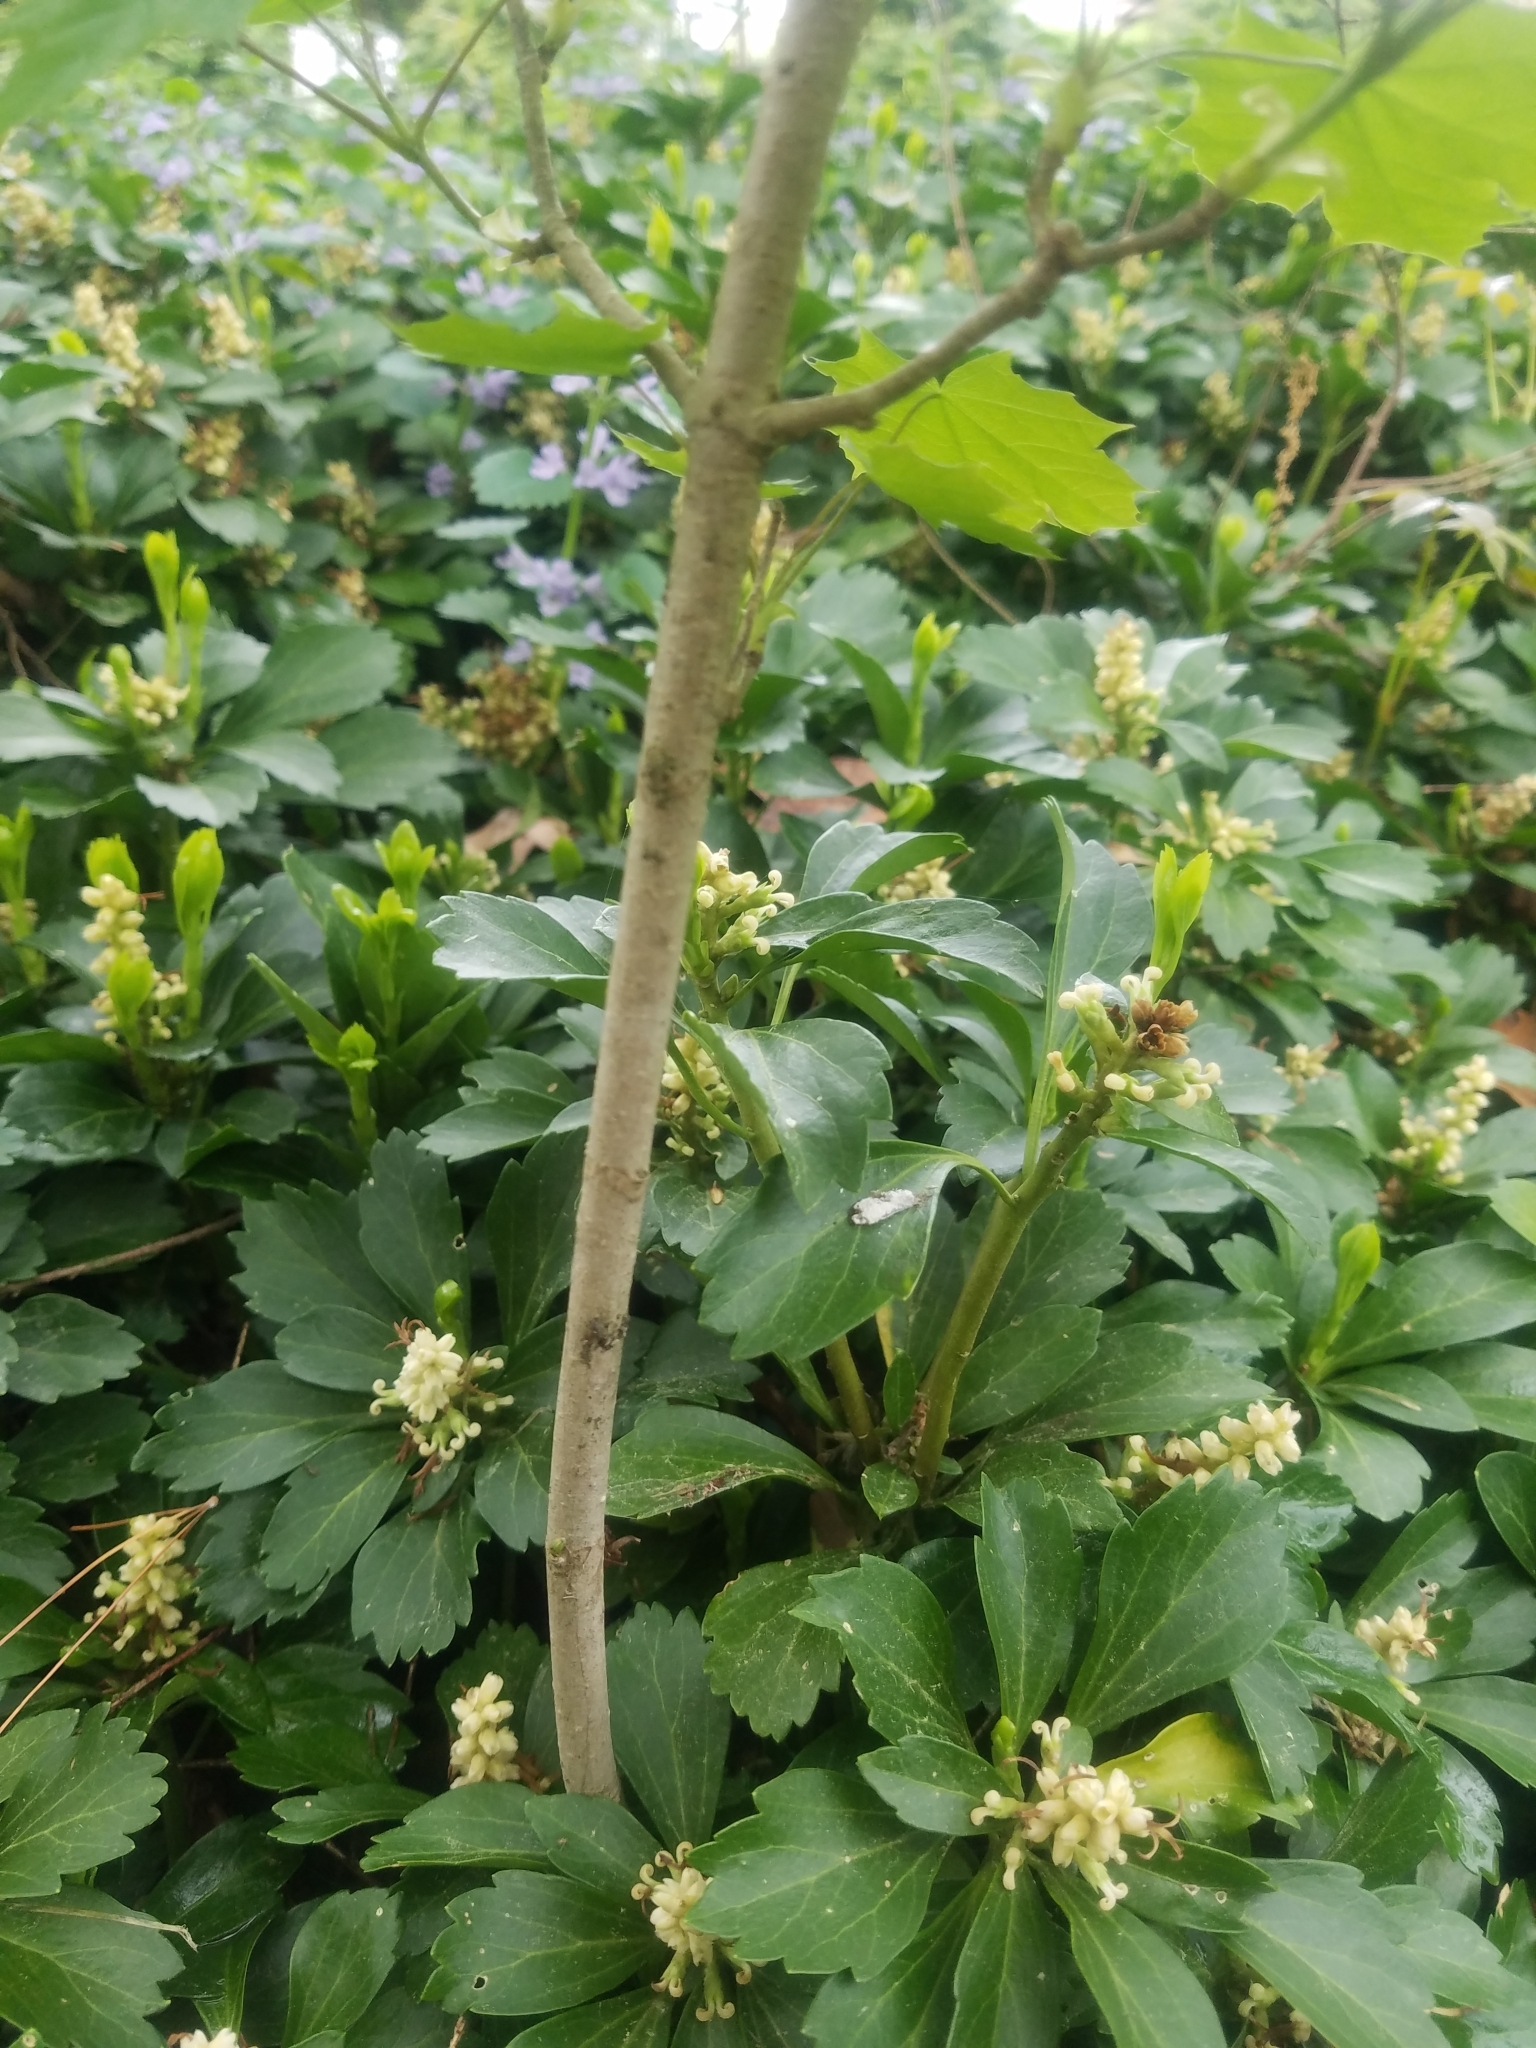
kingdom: Plantae
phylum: Tracheophyta
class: Magnoliopsida
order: Sapindales
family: Sapindaceae
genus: Acer
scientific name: Acer platanoides
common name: Norway maple
